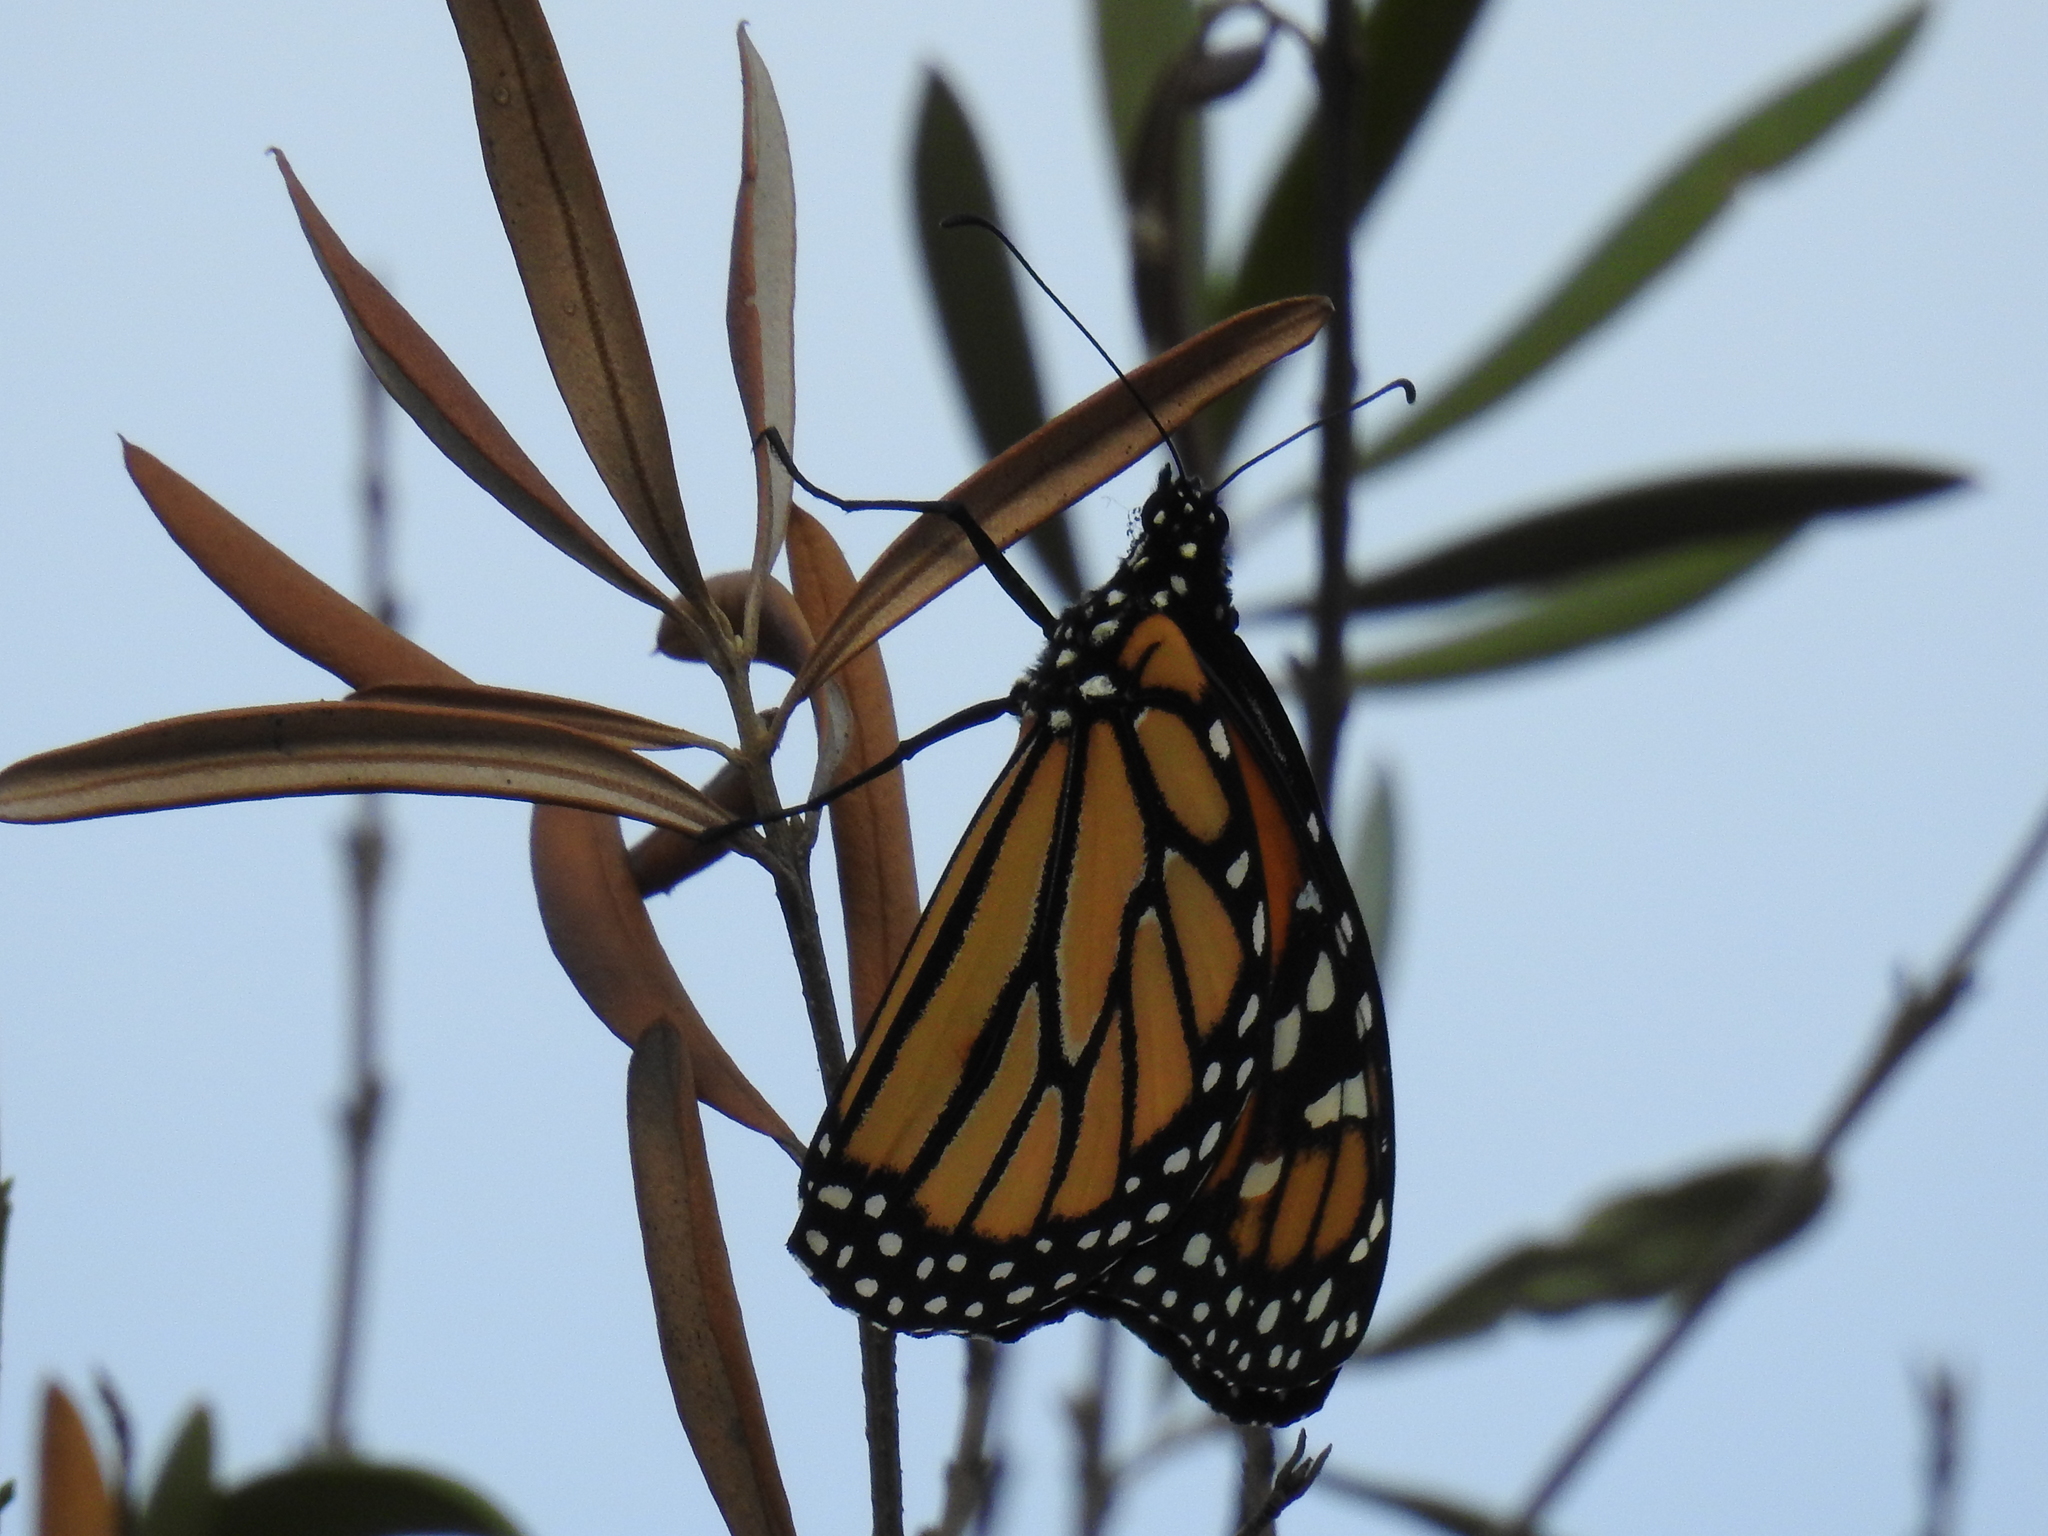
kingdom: Animalia
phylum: Arthropoda
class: Insecta
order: Lepidoptera
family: Nymphalidae
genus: Danaus
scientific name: Danaus plexippus
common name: Monarch
